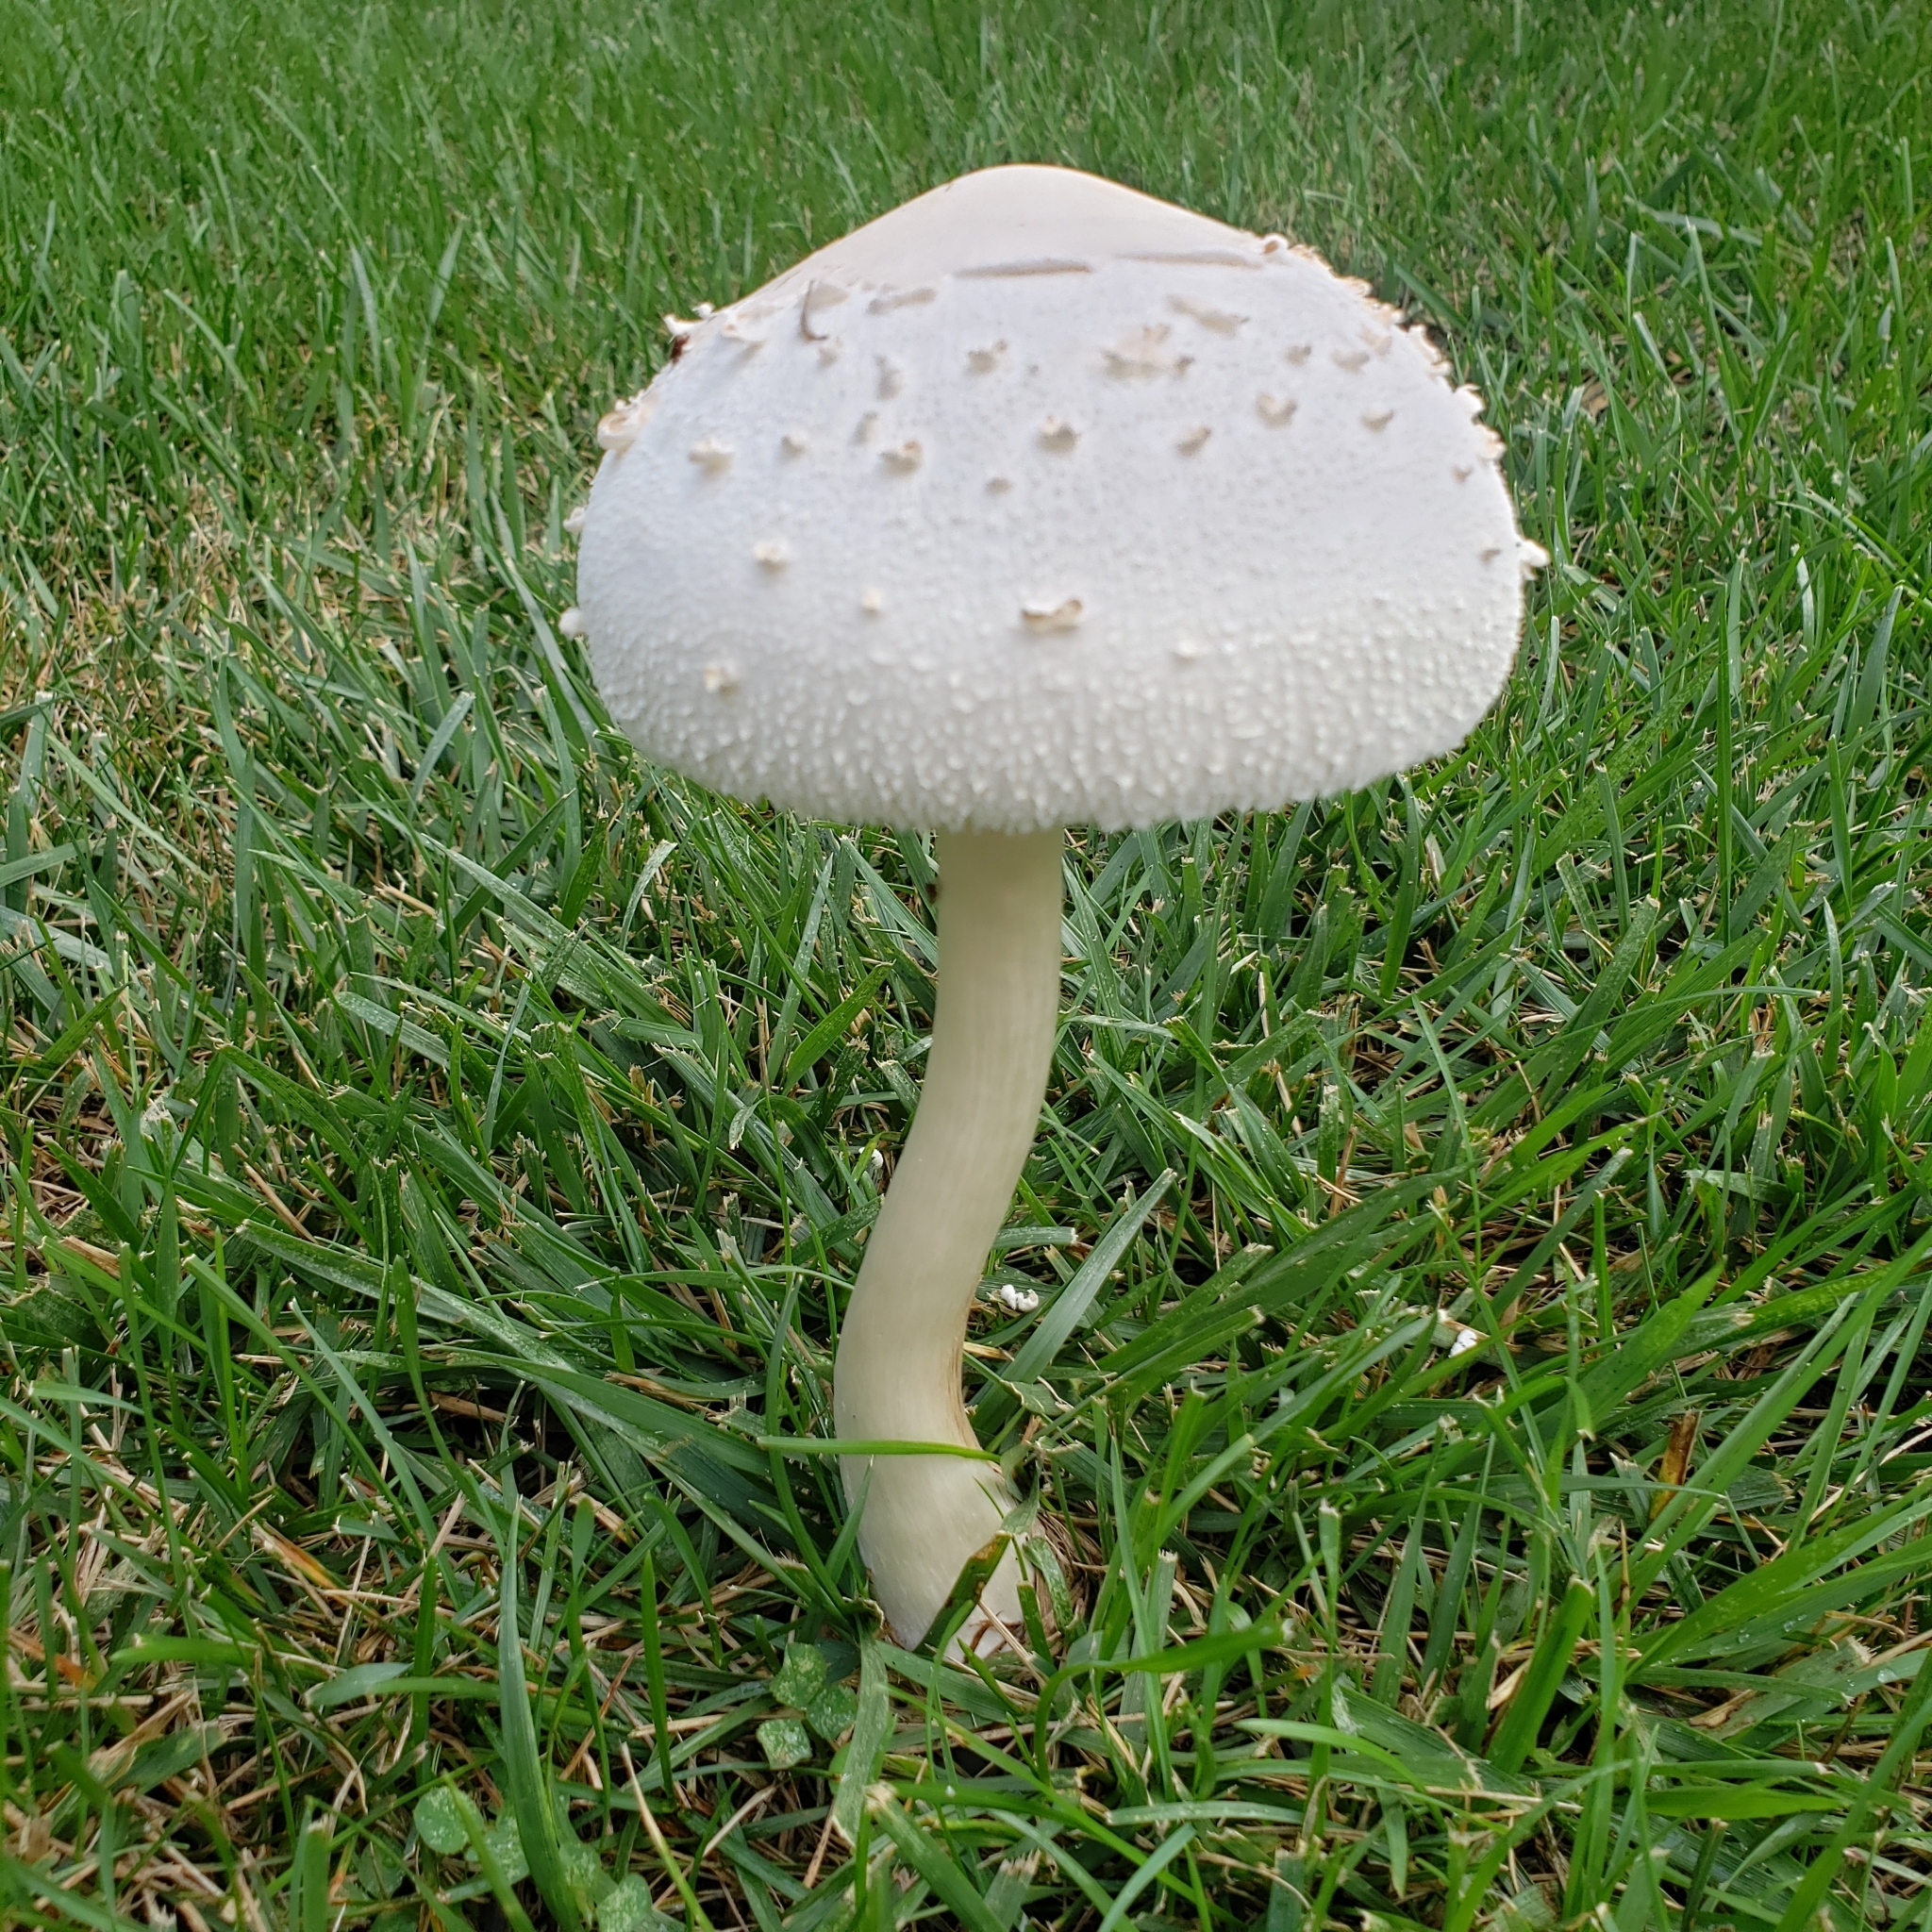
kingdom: Fungi
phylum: Basidiomycota
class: Agaricomycetes
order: Agaricales
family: Agaricaceae
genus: Chlorophyllum
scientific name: Chlorophyllum molybdites
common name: False parasol
